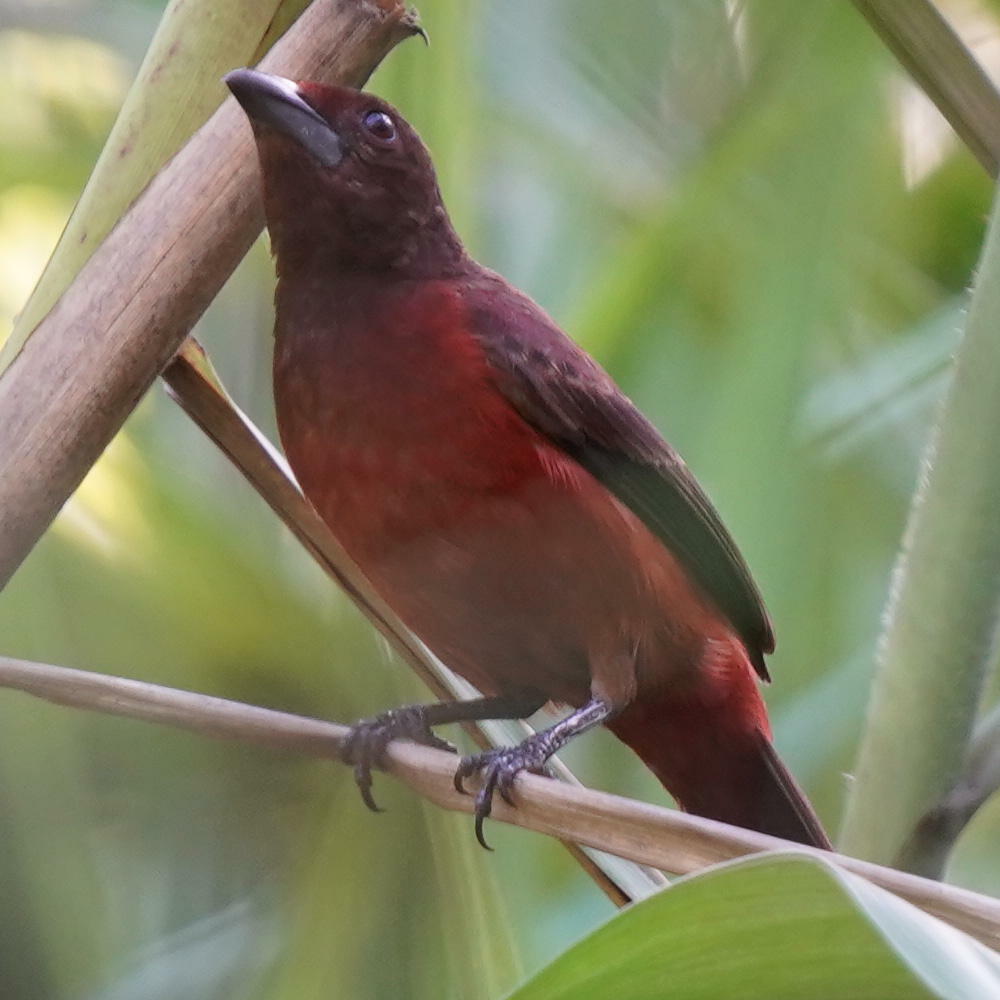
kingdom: Animalia
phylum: Chordata
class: Aves
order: Passeriformes
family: Thraupidae
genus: Ramphocelus
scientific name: Ramphocelus dimidiatus
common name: Crimson-backed tanager
